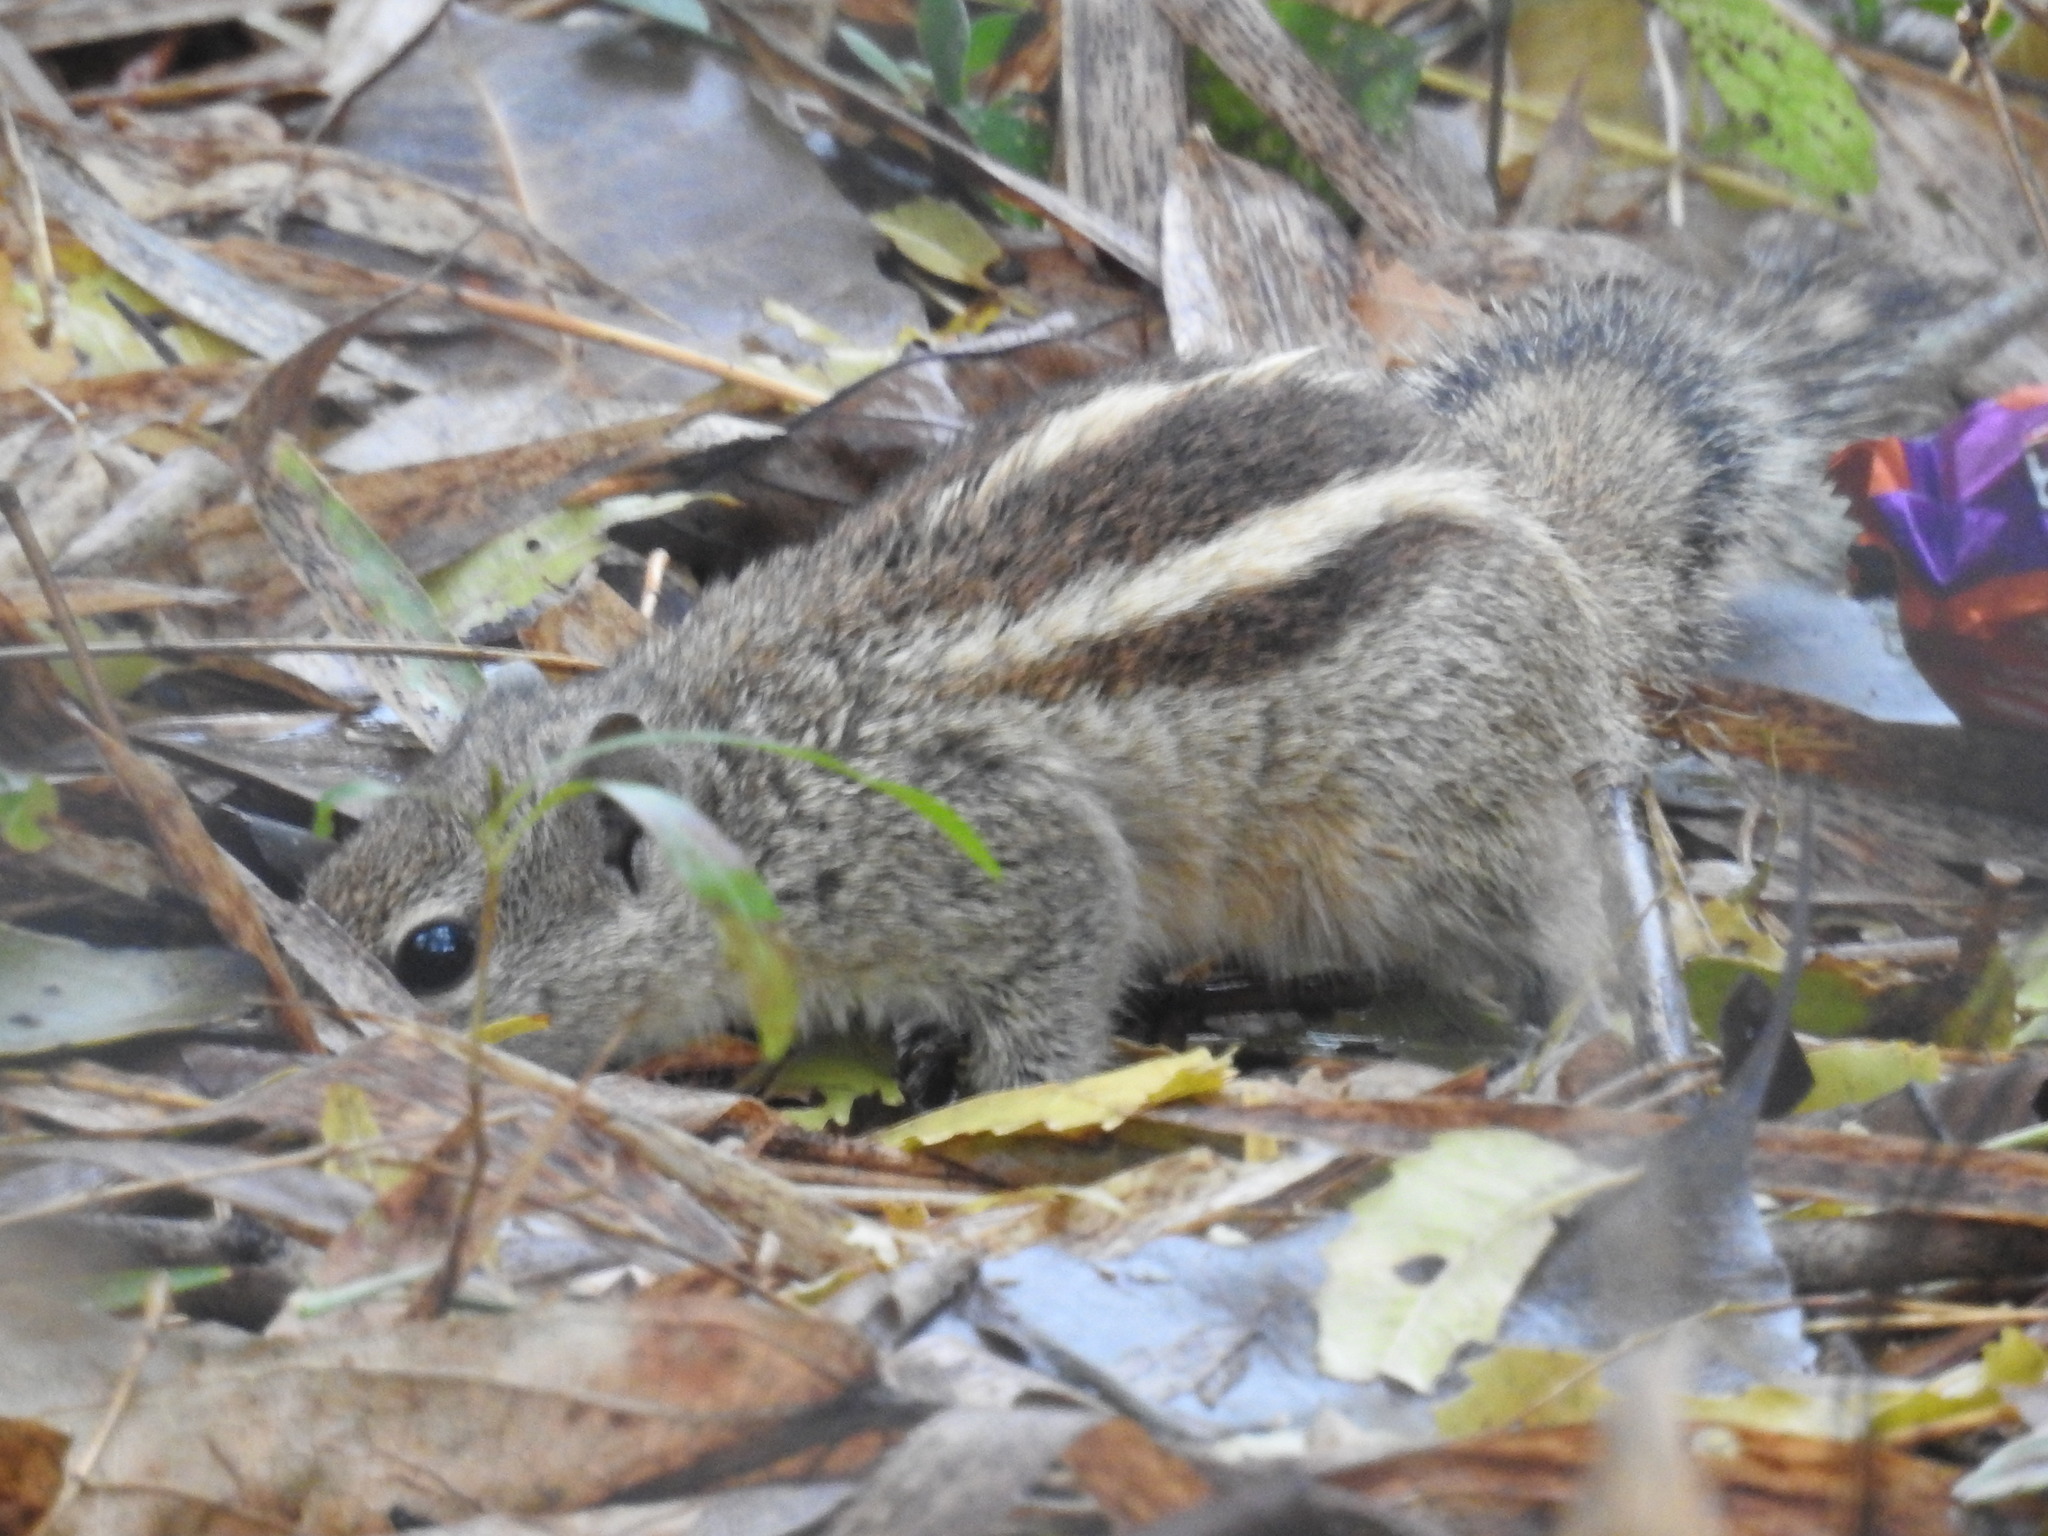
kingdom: Animalia
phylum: Chordata
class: Mammalia
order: Rodentia
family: Sciuridae
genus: Funambulus
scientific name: Funambulus palmarum
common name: Indian palm squirrel
